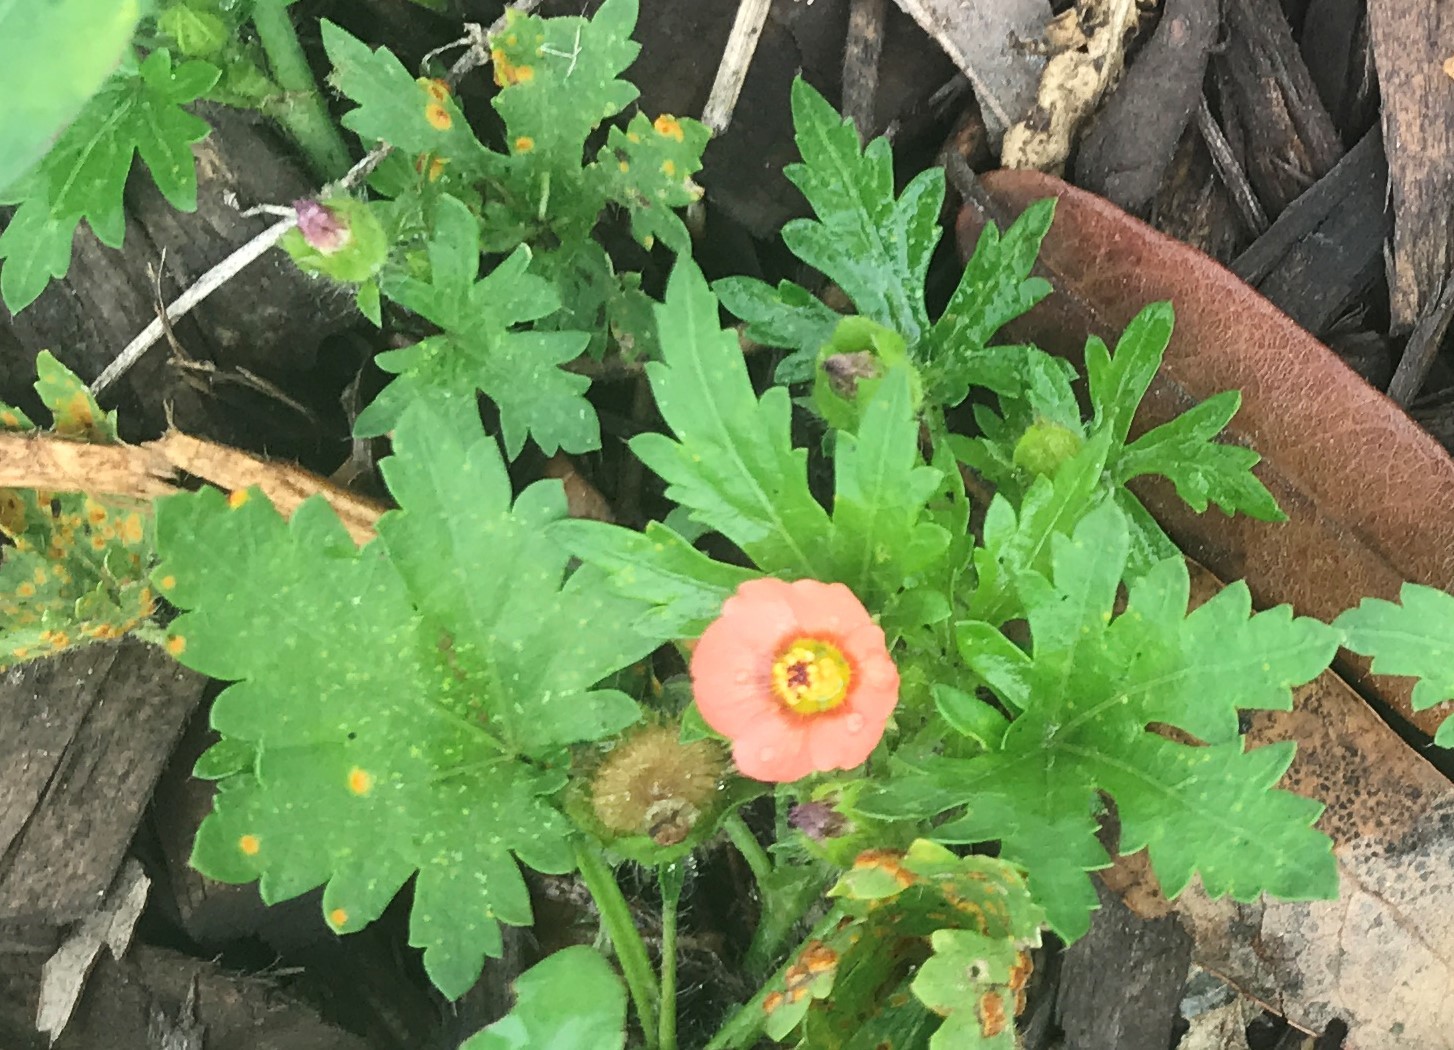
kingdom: Plantae
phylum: Tracheophyta
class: Magnoliopsida
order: Malvales
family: Malvaceae
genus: Modiola
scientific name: Modiola caroliniana
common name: Carolina bristlemallow
